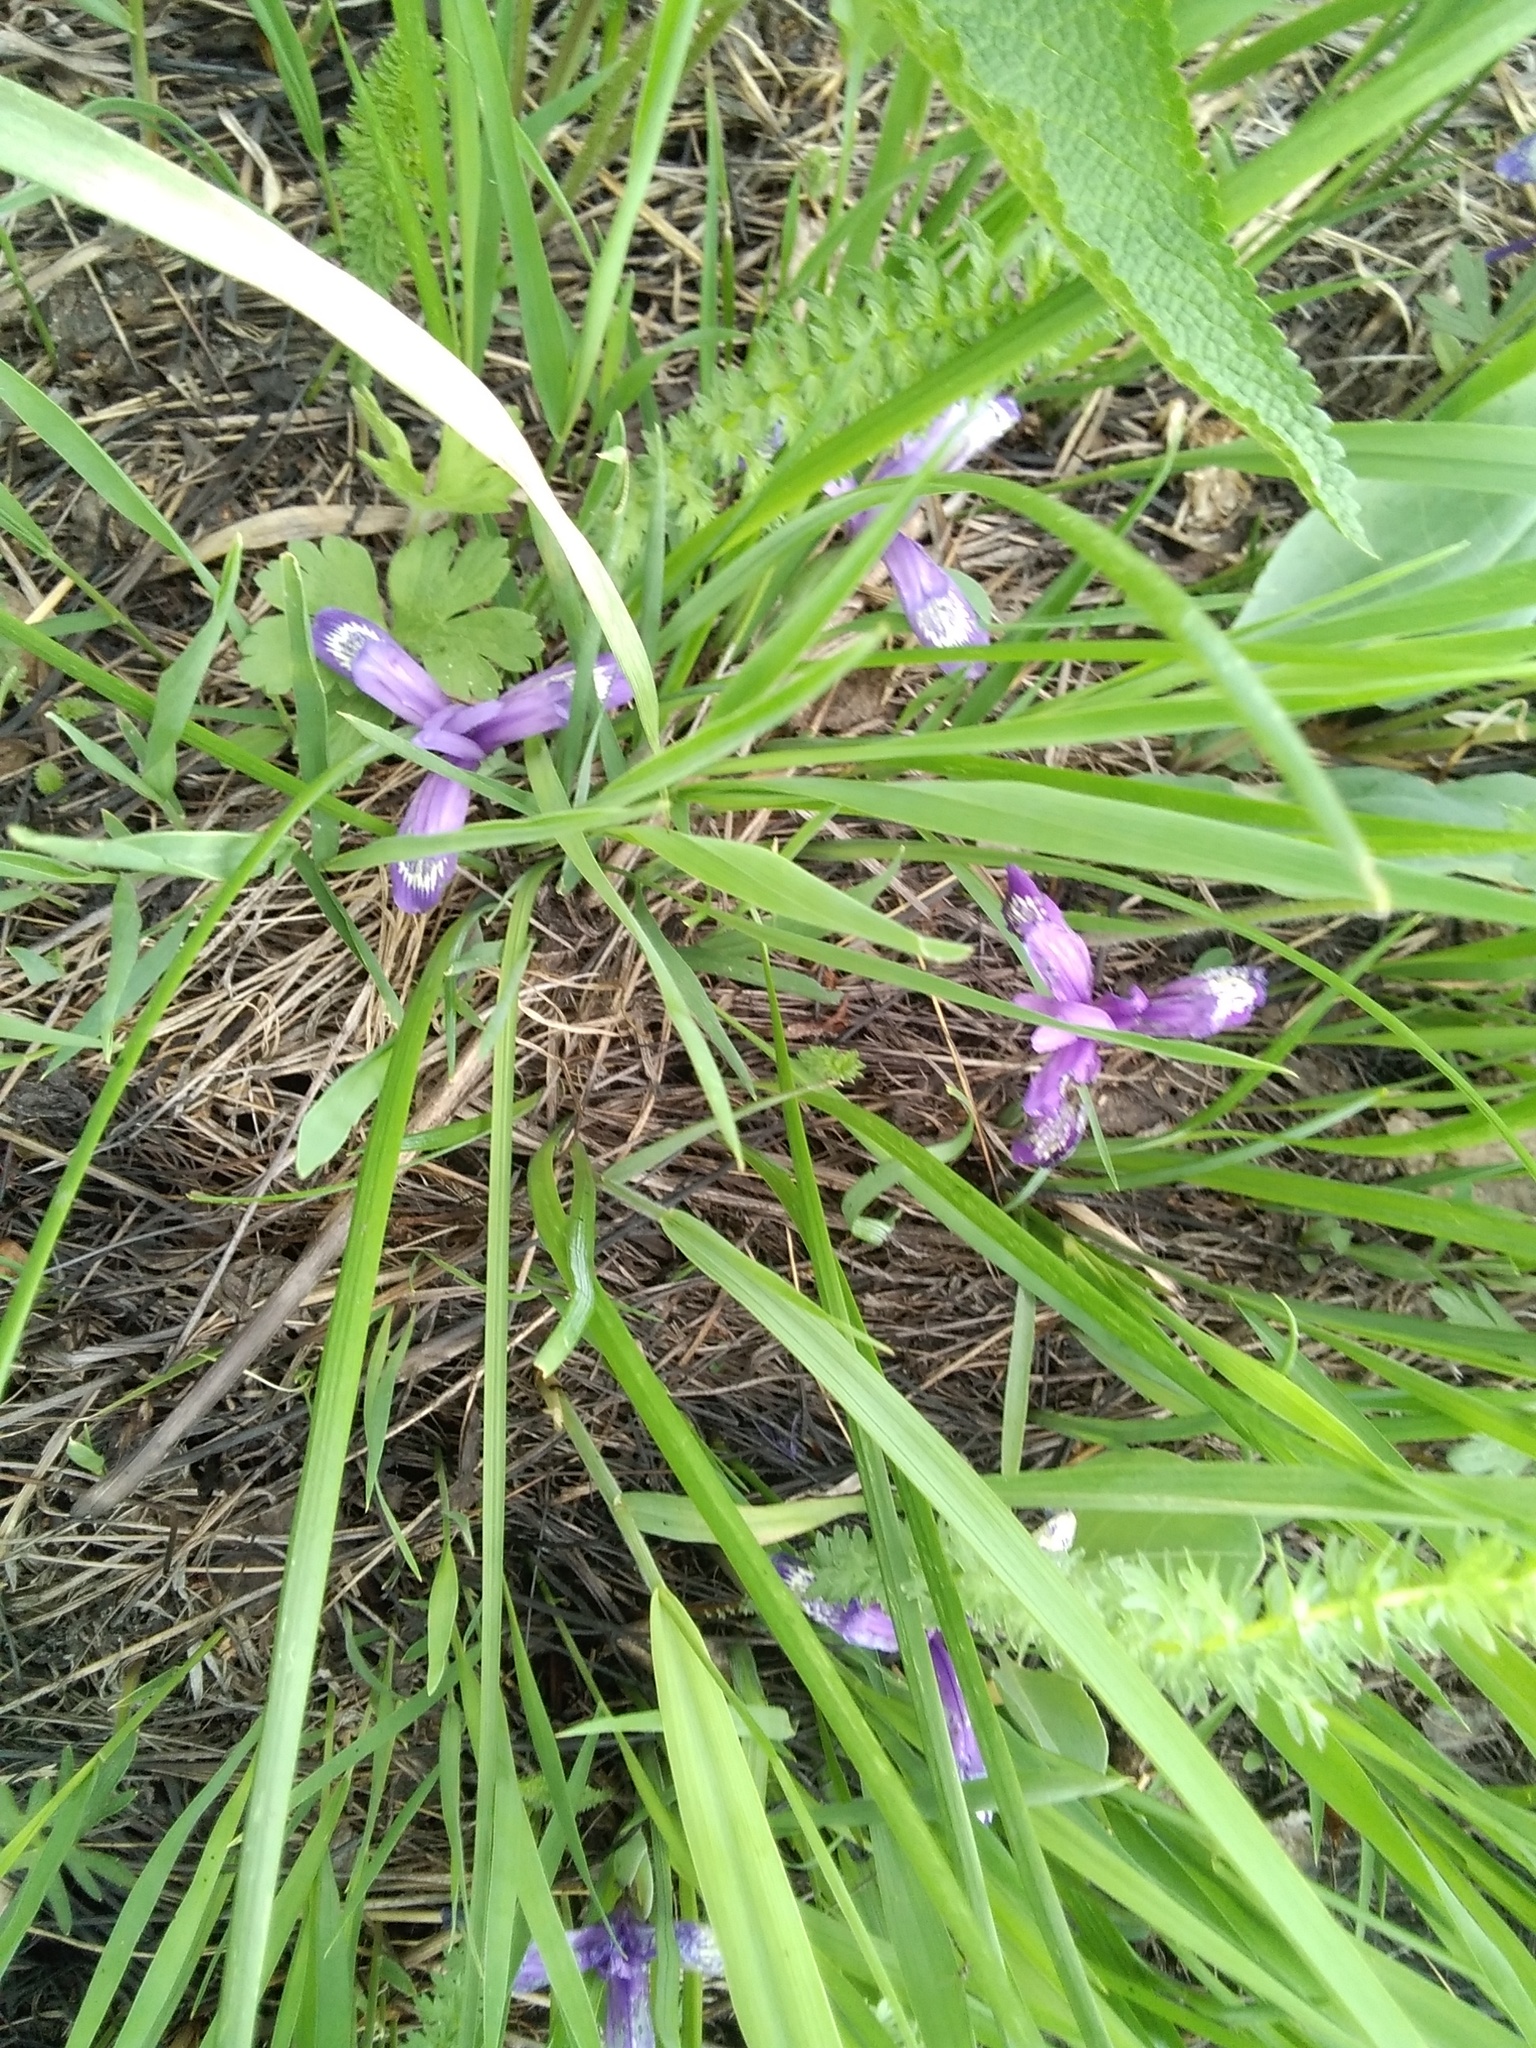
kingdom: Plantae
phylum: Tracheophyta
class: Liliopsida
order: Asparagales
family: Iridaceae
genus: Iris
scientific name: Iris ruthenica
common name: Purple-bract iris
